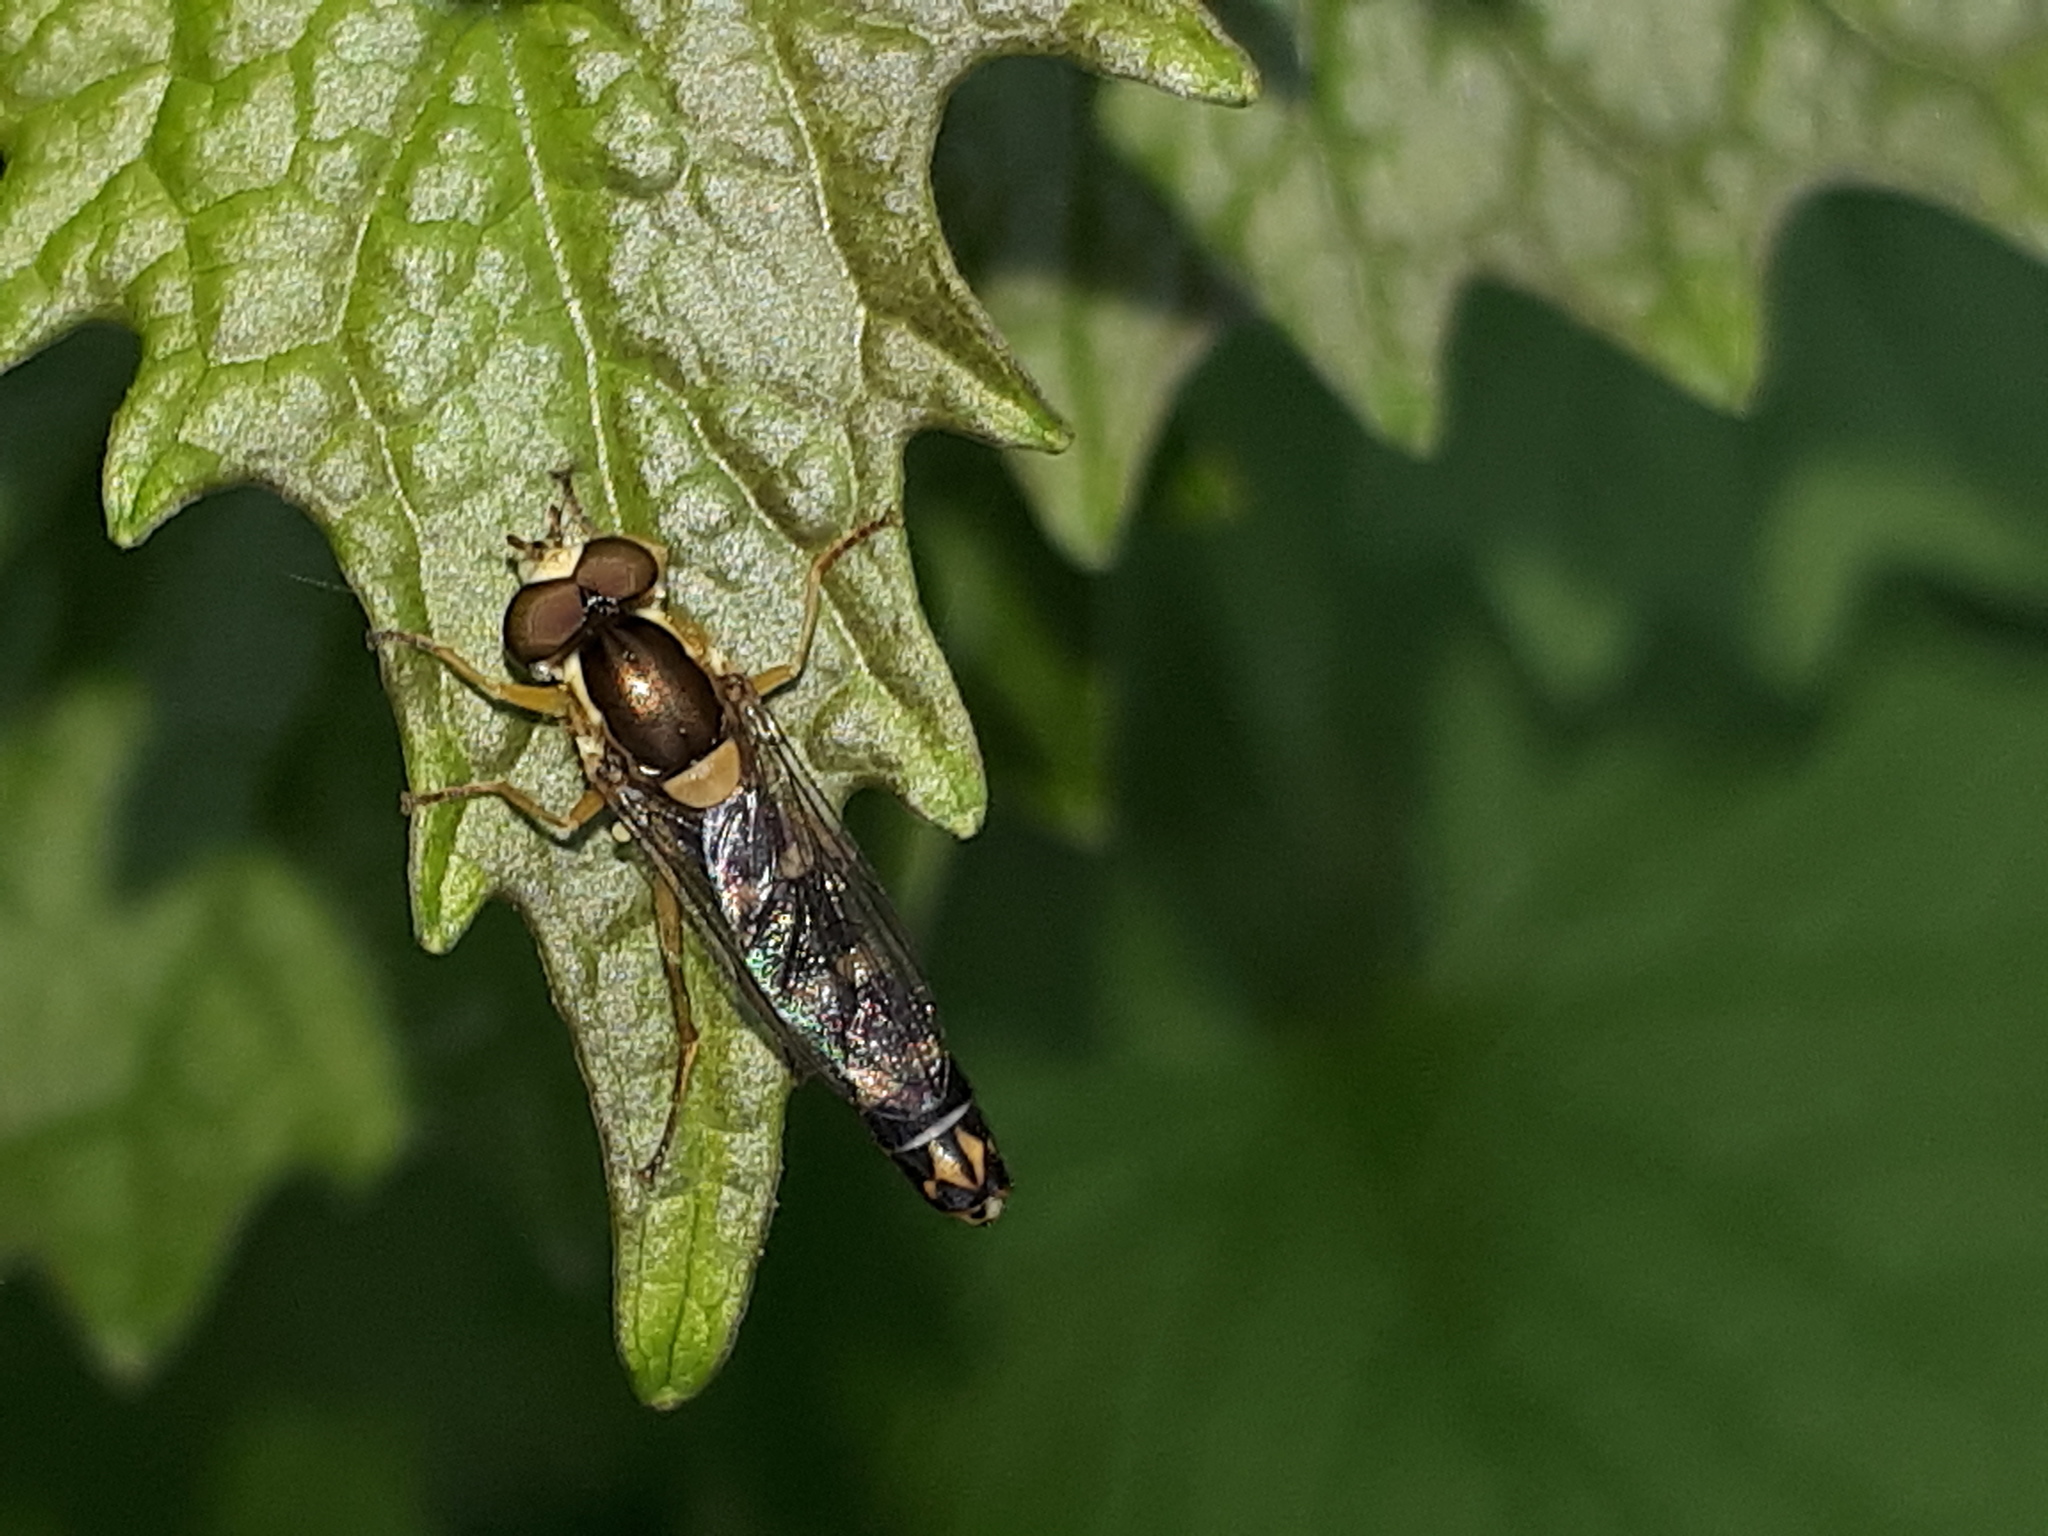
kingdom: Animalia
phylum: Arthropoda
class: Insecta
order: Diptera
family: Syrphidae
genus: Sphaerophoria
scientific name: Sphaerophoria scripta
